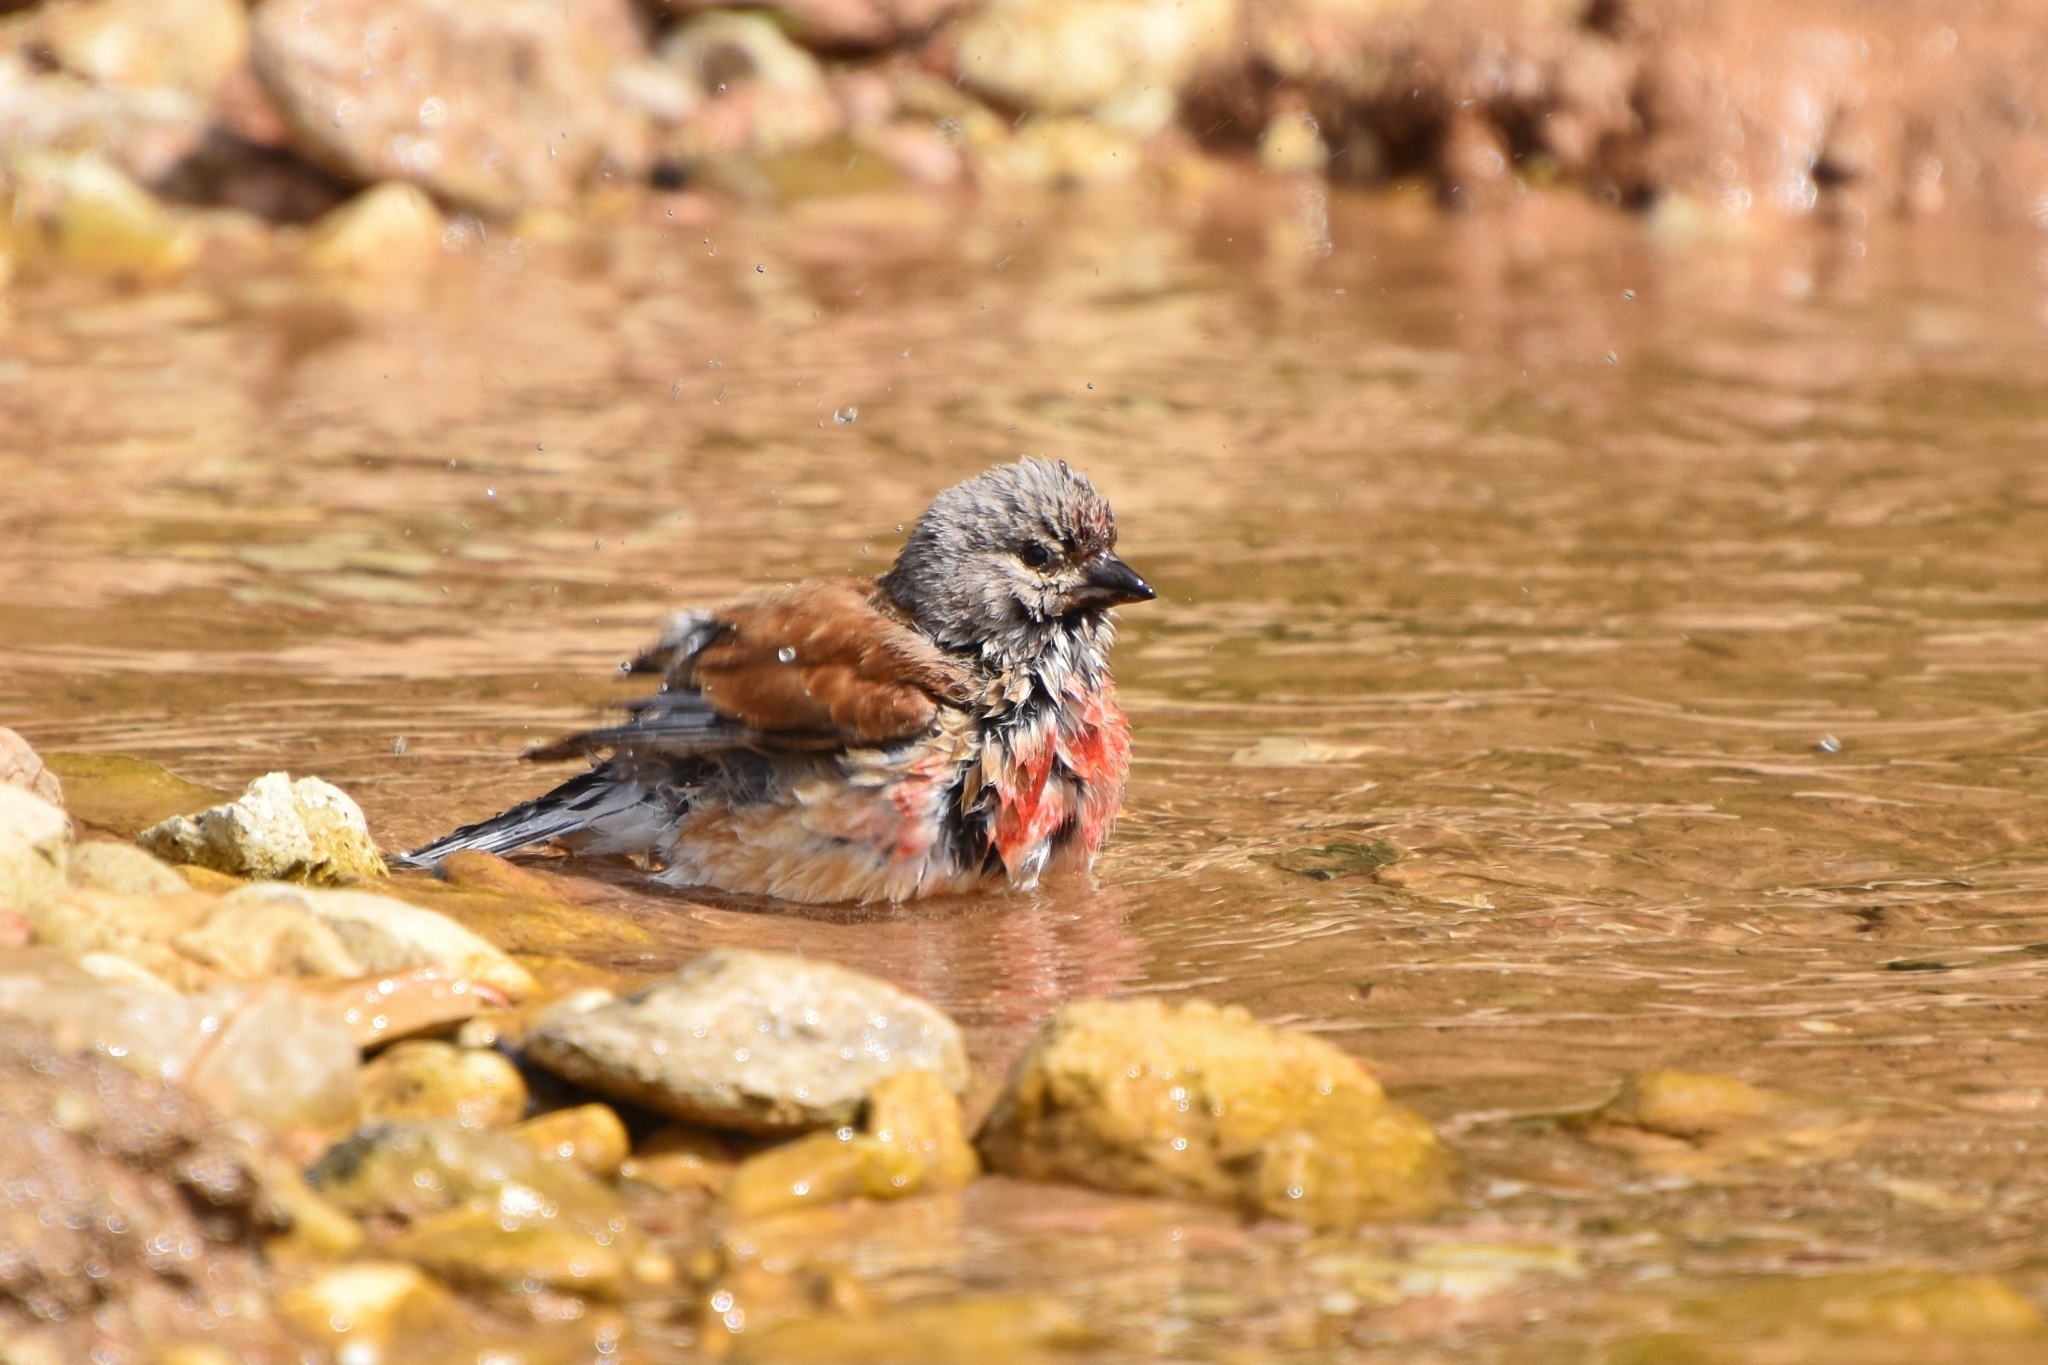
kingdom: Animalia
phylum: Chordata
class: Aves
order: Passeriformes
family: Fringillidae
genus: Linaria
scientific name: Linaria cannabina
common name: Common linnet
